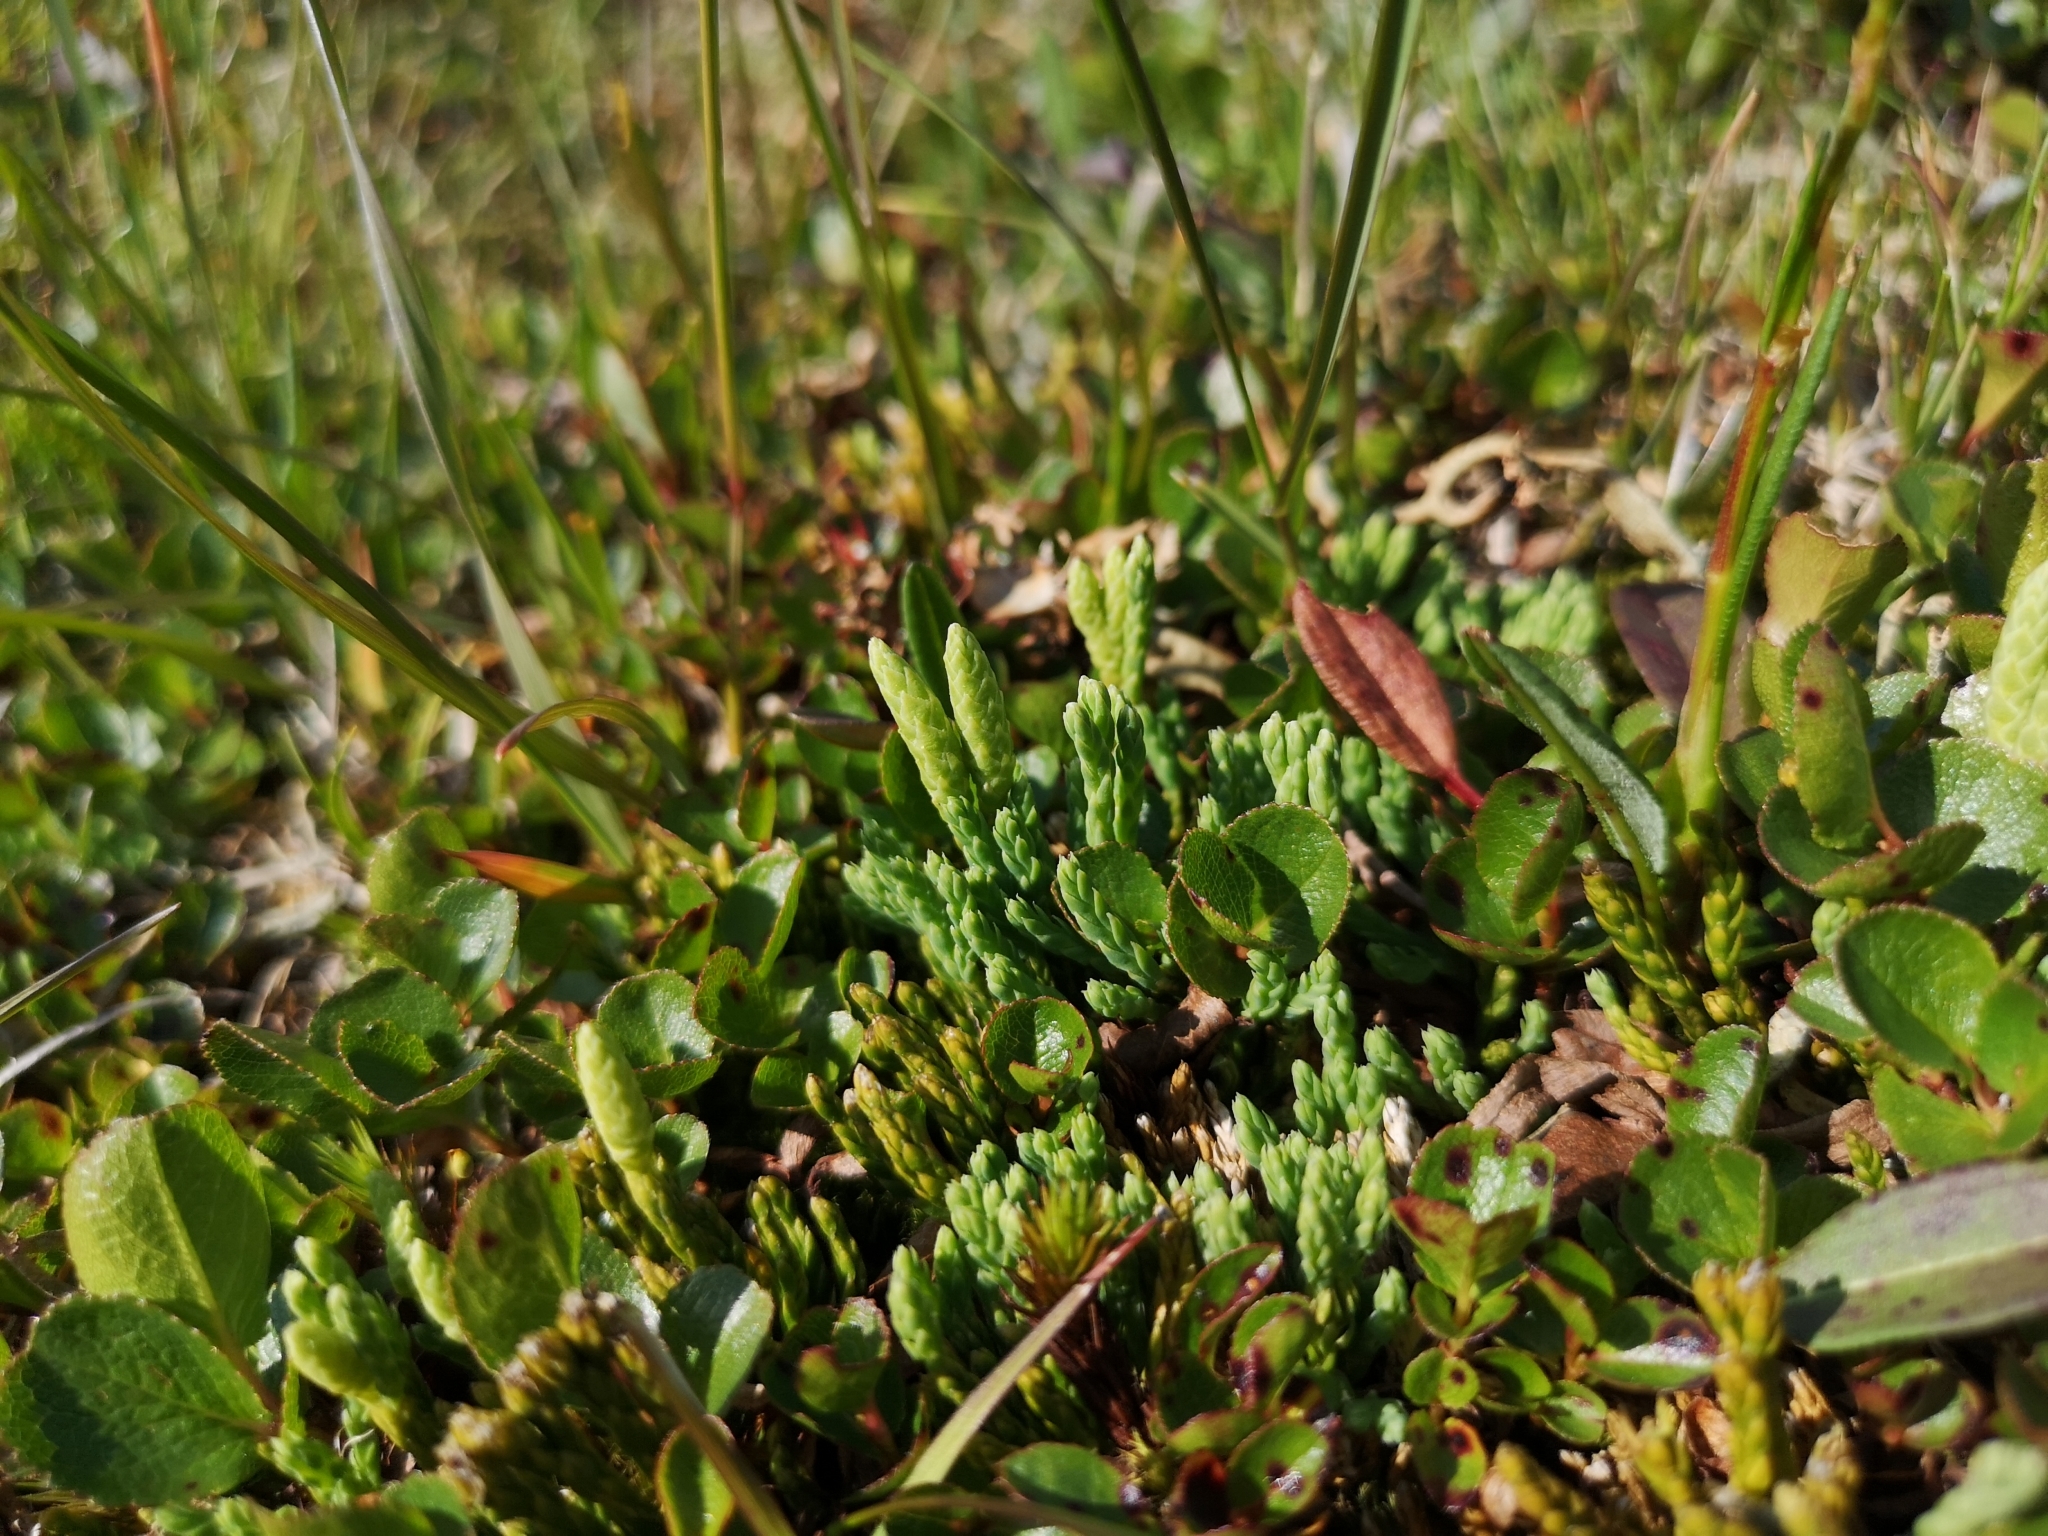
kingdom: Plantae
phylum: Tracheophyta
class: Lycopodiopsida
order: Lycopodiales
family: Lycopodiaceae
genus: Diphasiastrum
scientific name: Diphasiastrum alpinum
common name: Alpine clubmoss
